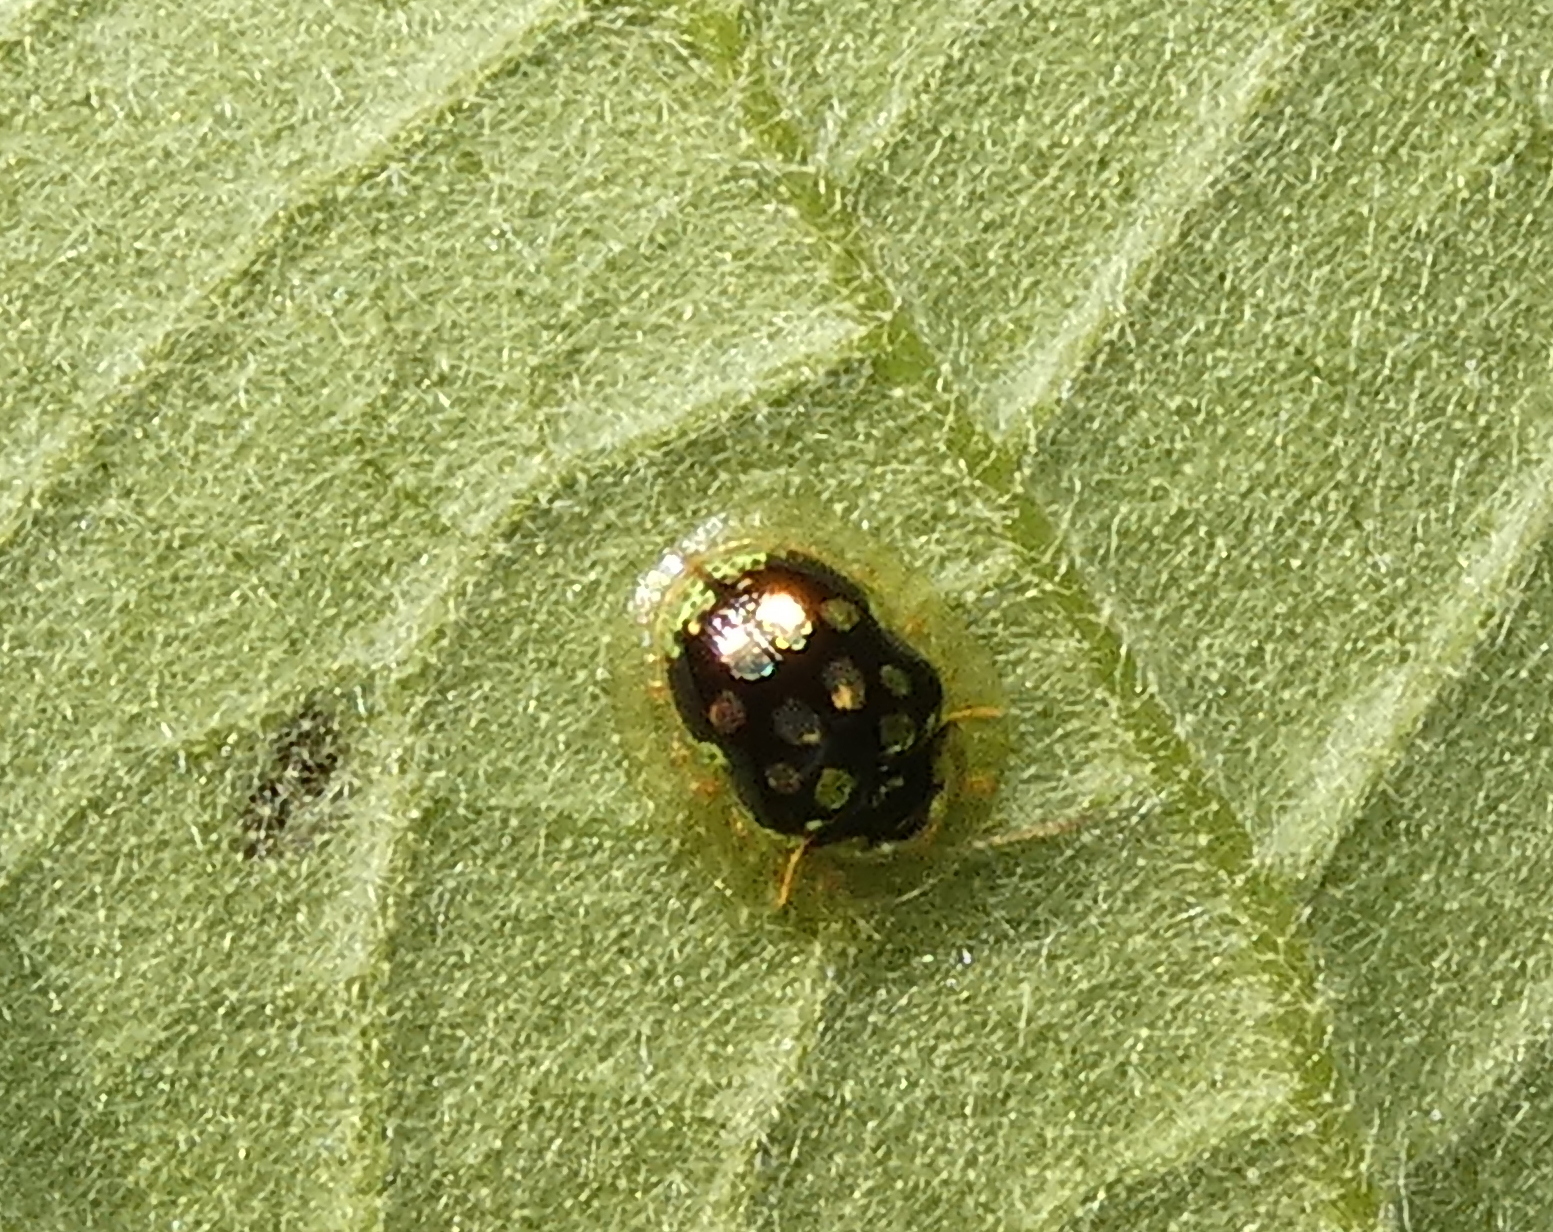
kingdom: Animalia
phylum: Arthropoda
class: Insecta
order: Coleoptera
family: Chrysomelidae
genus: Plagiometriona
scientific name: Plagiometriona microcera
